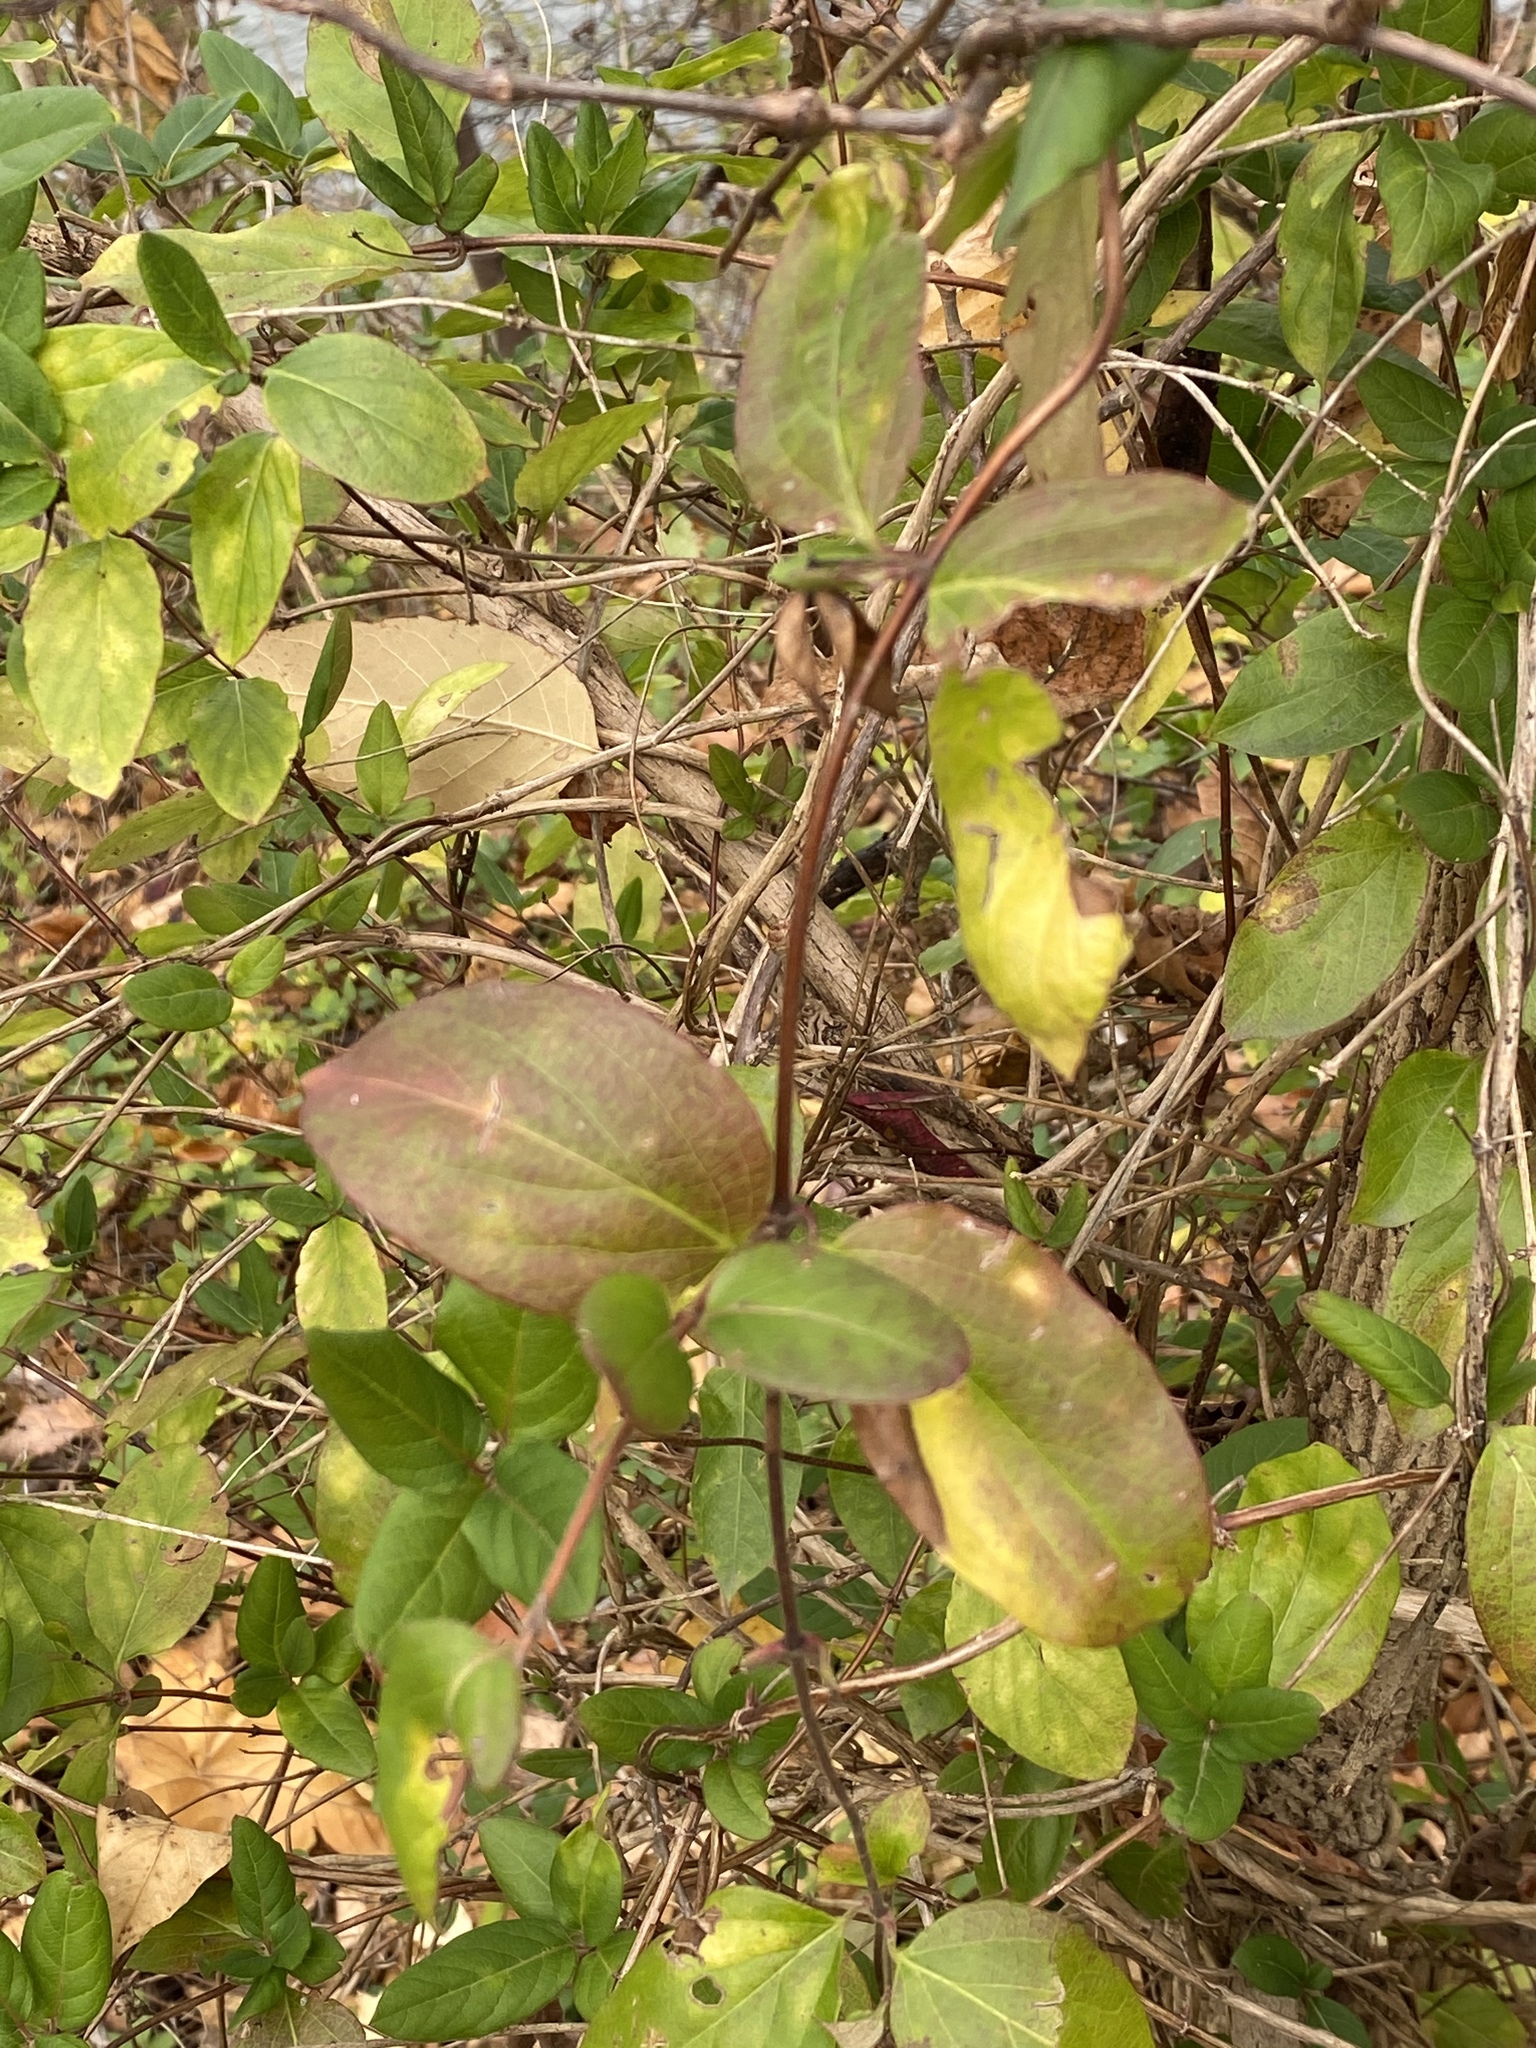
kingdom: Plantae
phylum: Tracheophyta
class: Magnoliopsida
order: Dipsacales
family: Caprifoliaceae
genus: Lonicera
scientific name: Lonicera japonica
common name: Japanese honeysuckle
